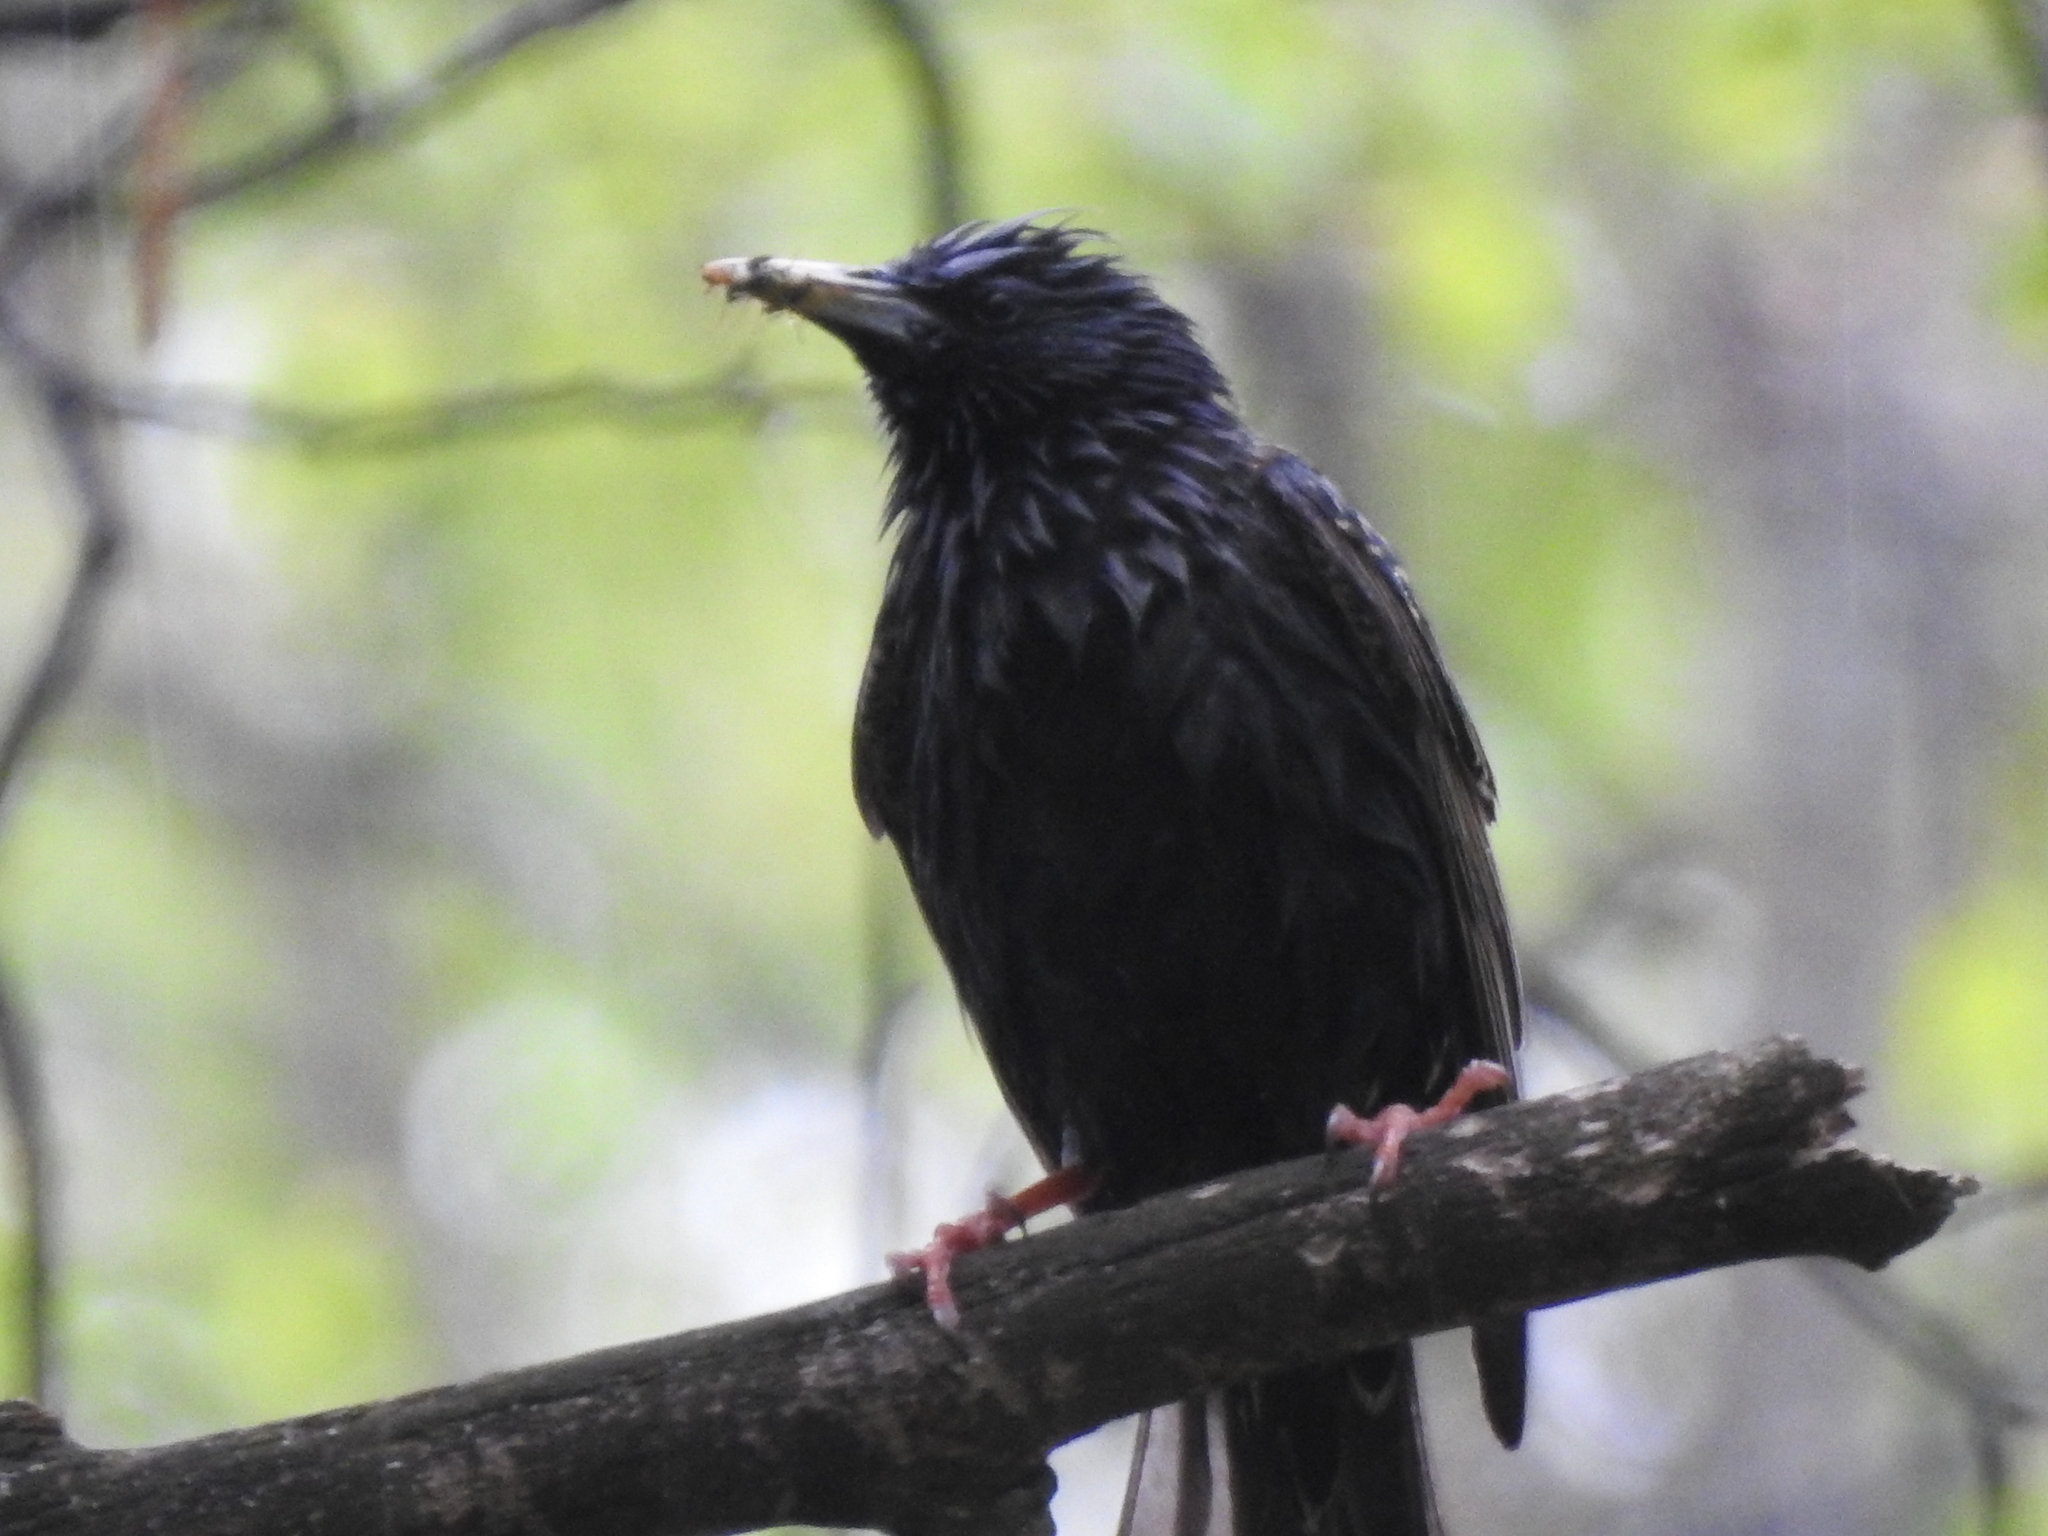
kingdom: Animalia
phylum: Chordata
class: Aves
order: Passeriformes
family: Sturnidae
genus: Sturnus
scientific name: Sturnus vulgaris
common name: Common starling
